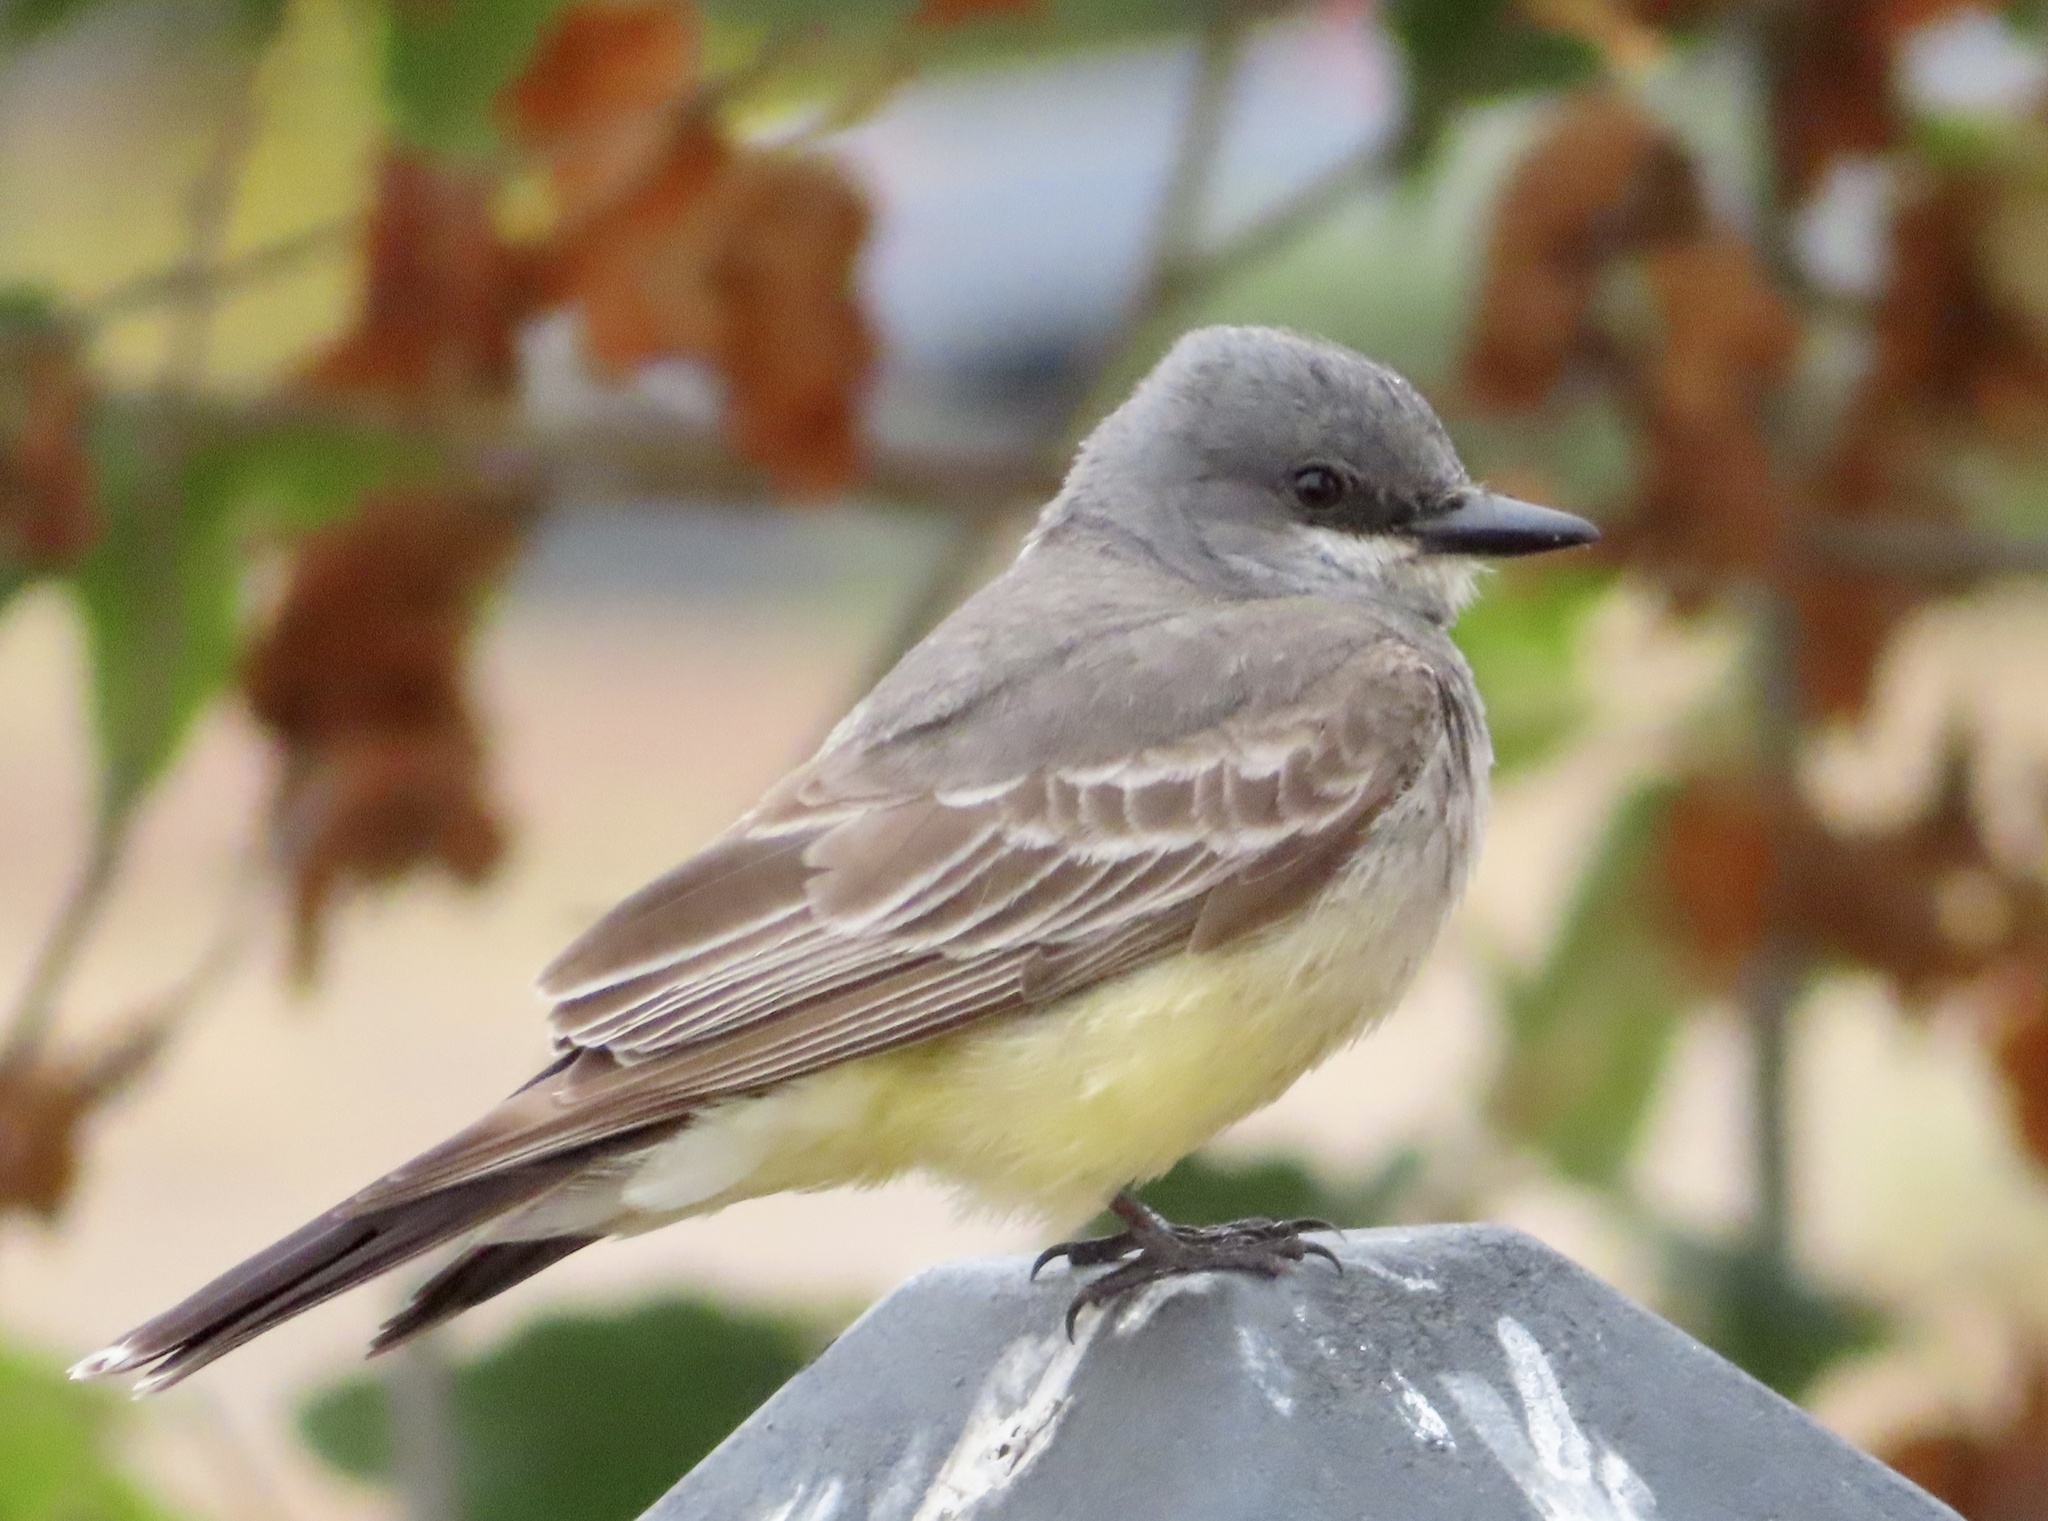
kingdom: Animalia
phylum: Chordata
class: Aves
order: Passeriformes
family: Tyrannidae
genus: Tyrannus
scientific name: Tyrannus vociferans
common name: Cassin's kingbird
